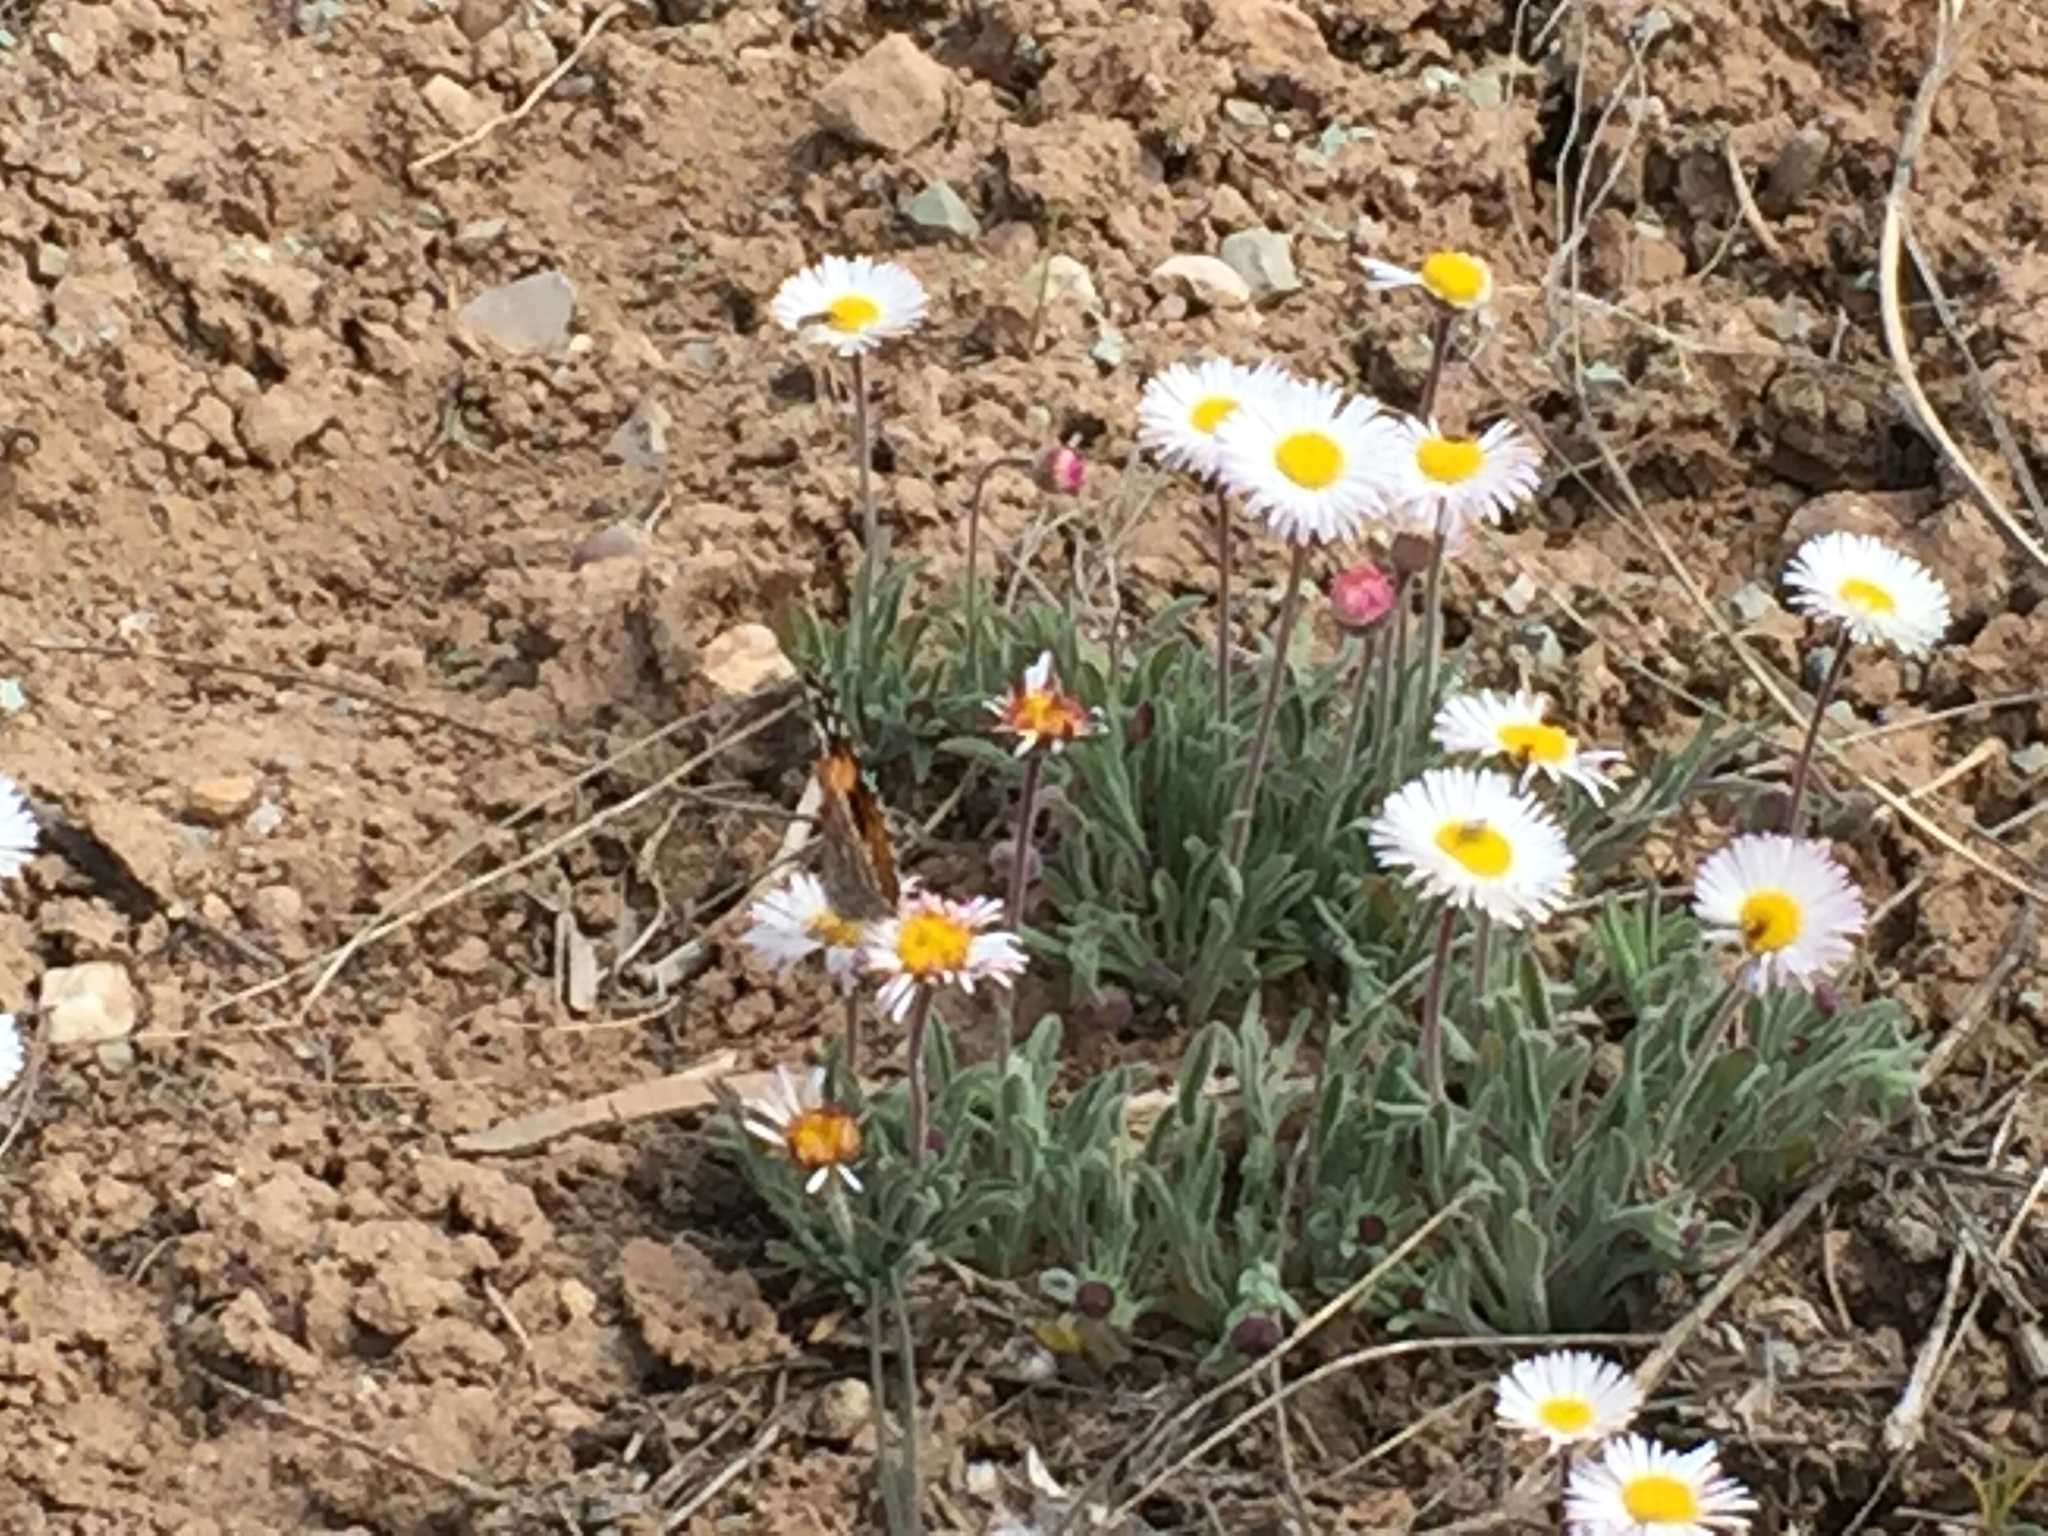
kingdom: Animalia
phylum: Arthropoda
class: Insecta
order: Lepidoptera
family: Nymphalidae
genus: Vanessa
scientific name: Vanessa cardui
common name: Painted lady
